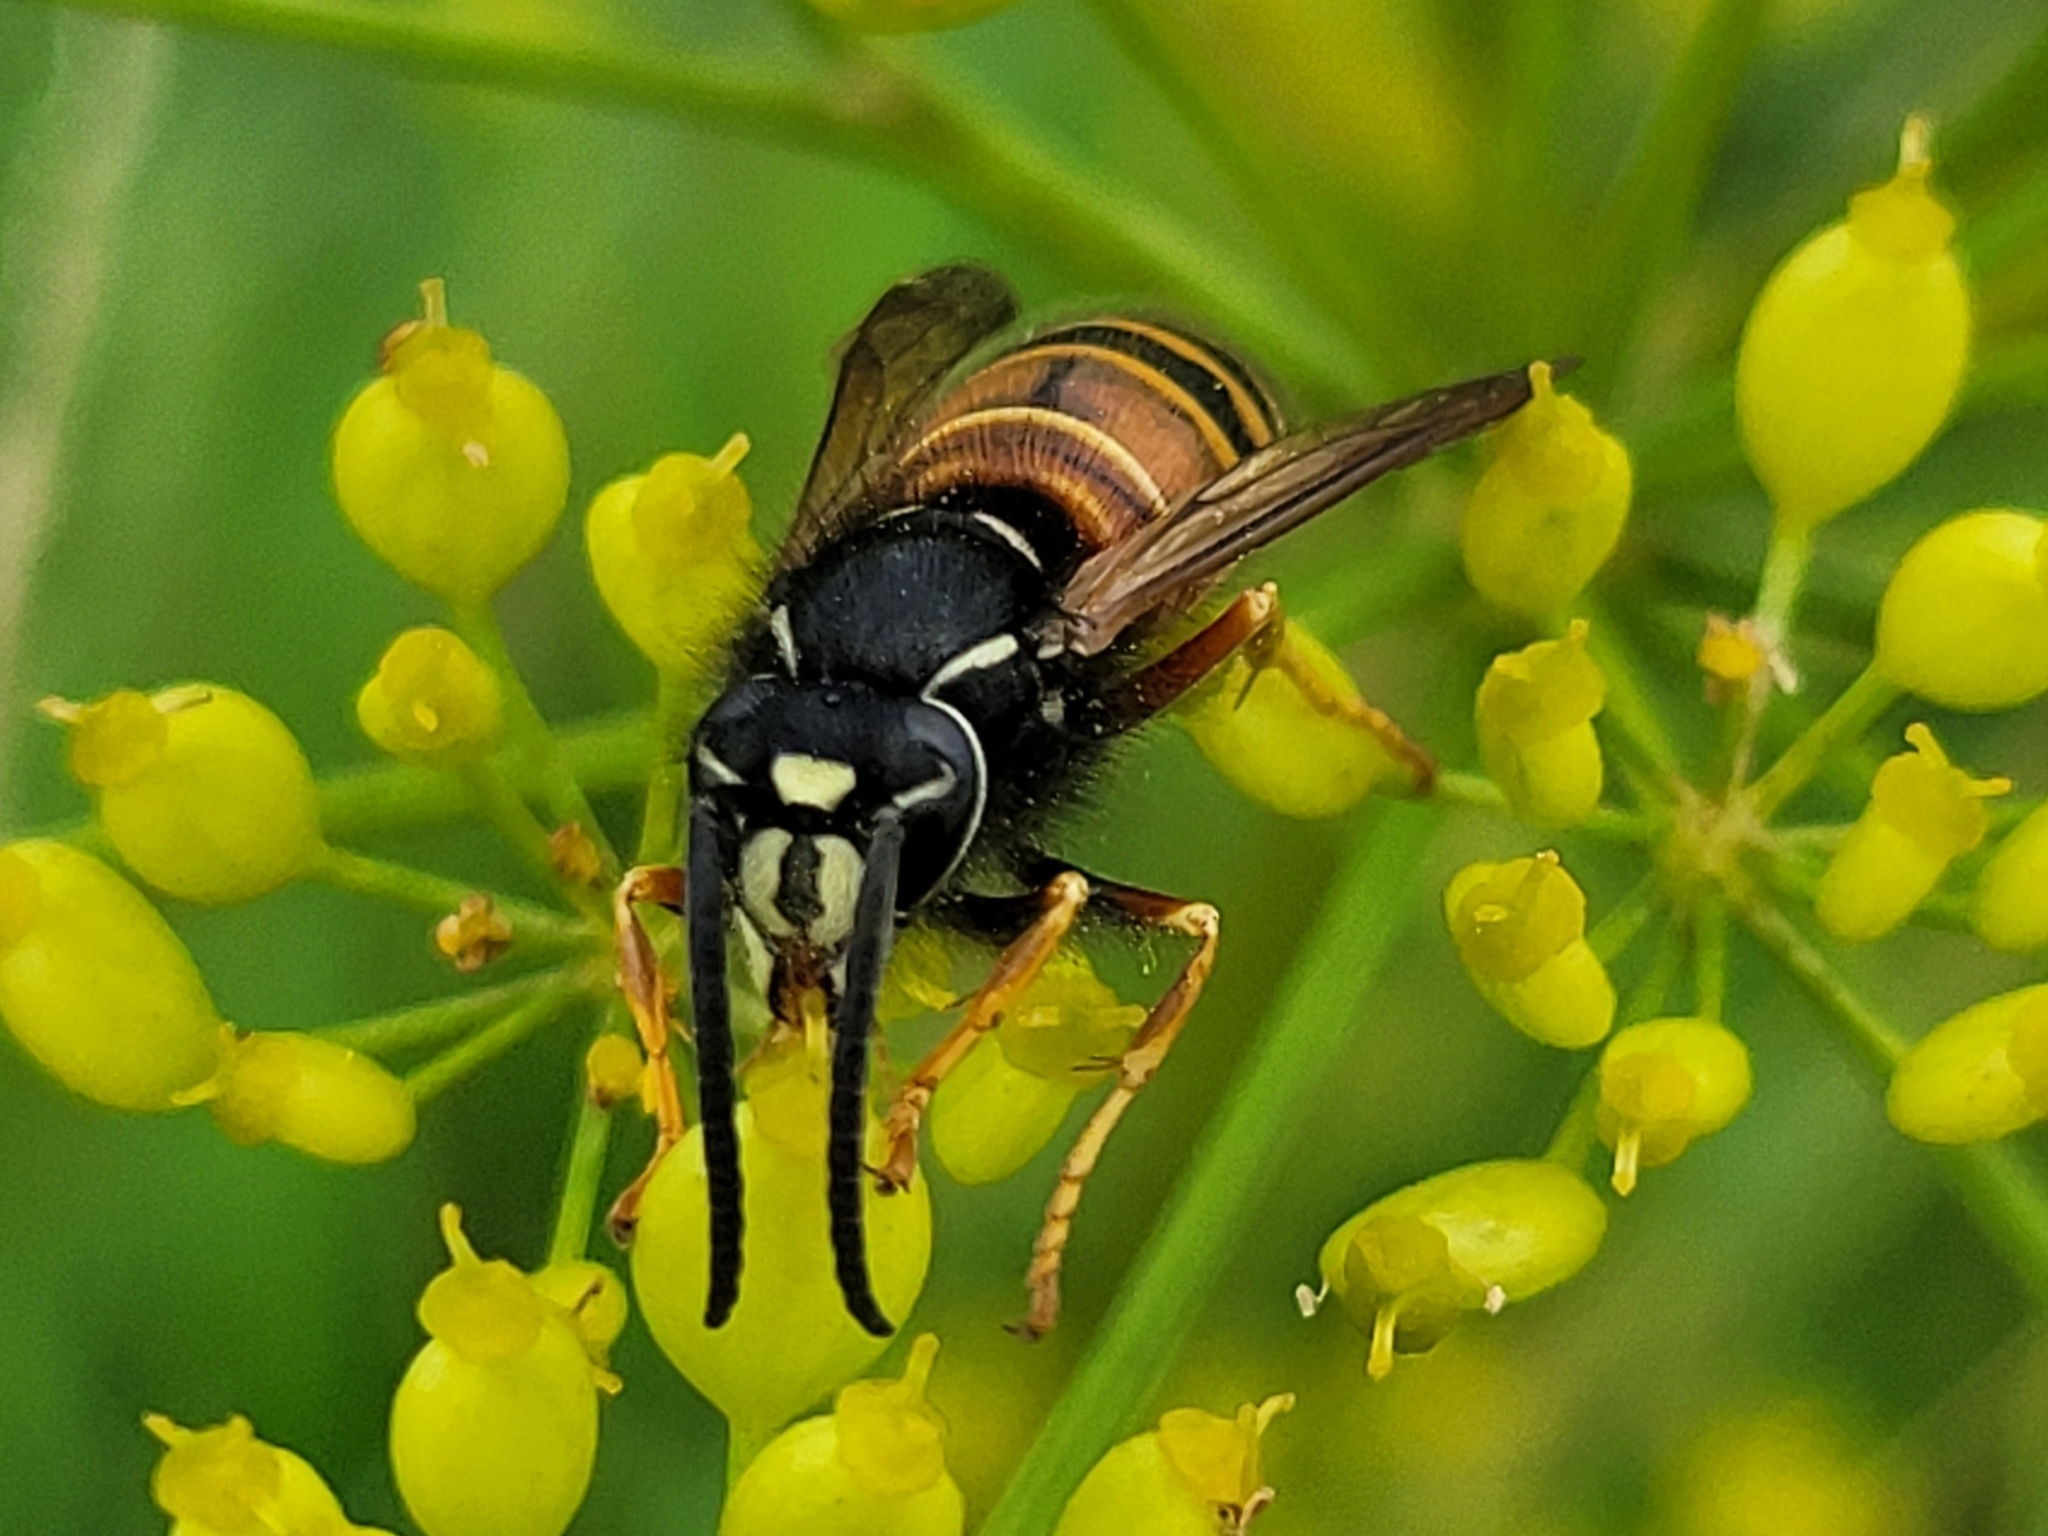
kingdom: Animalia
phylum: Arthropoda
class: Insecta
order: Hymenoptera
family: Vespidae
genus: Vespula
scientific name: Vespula rufa
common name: Red wasp
